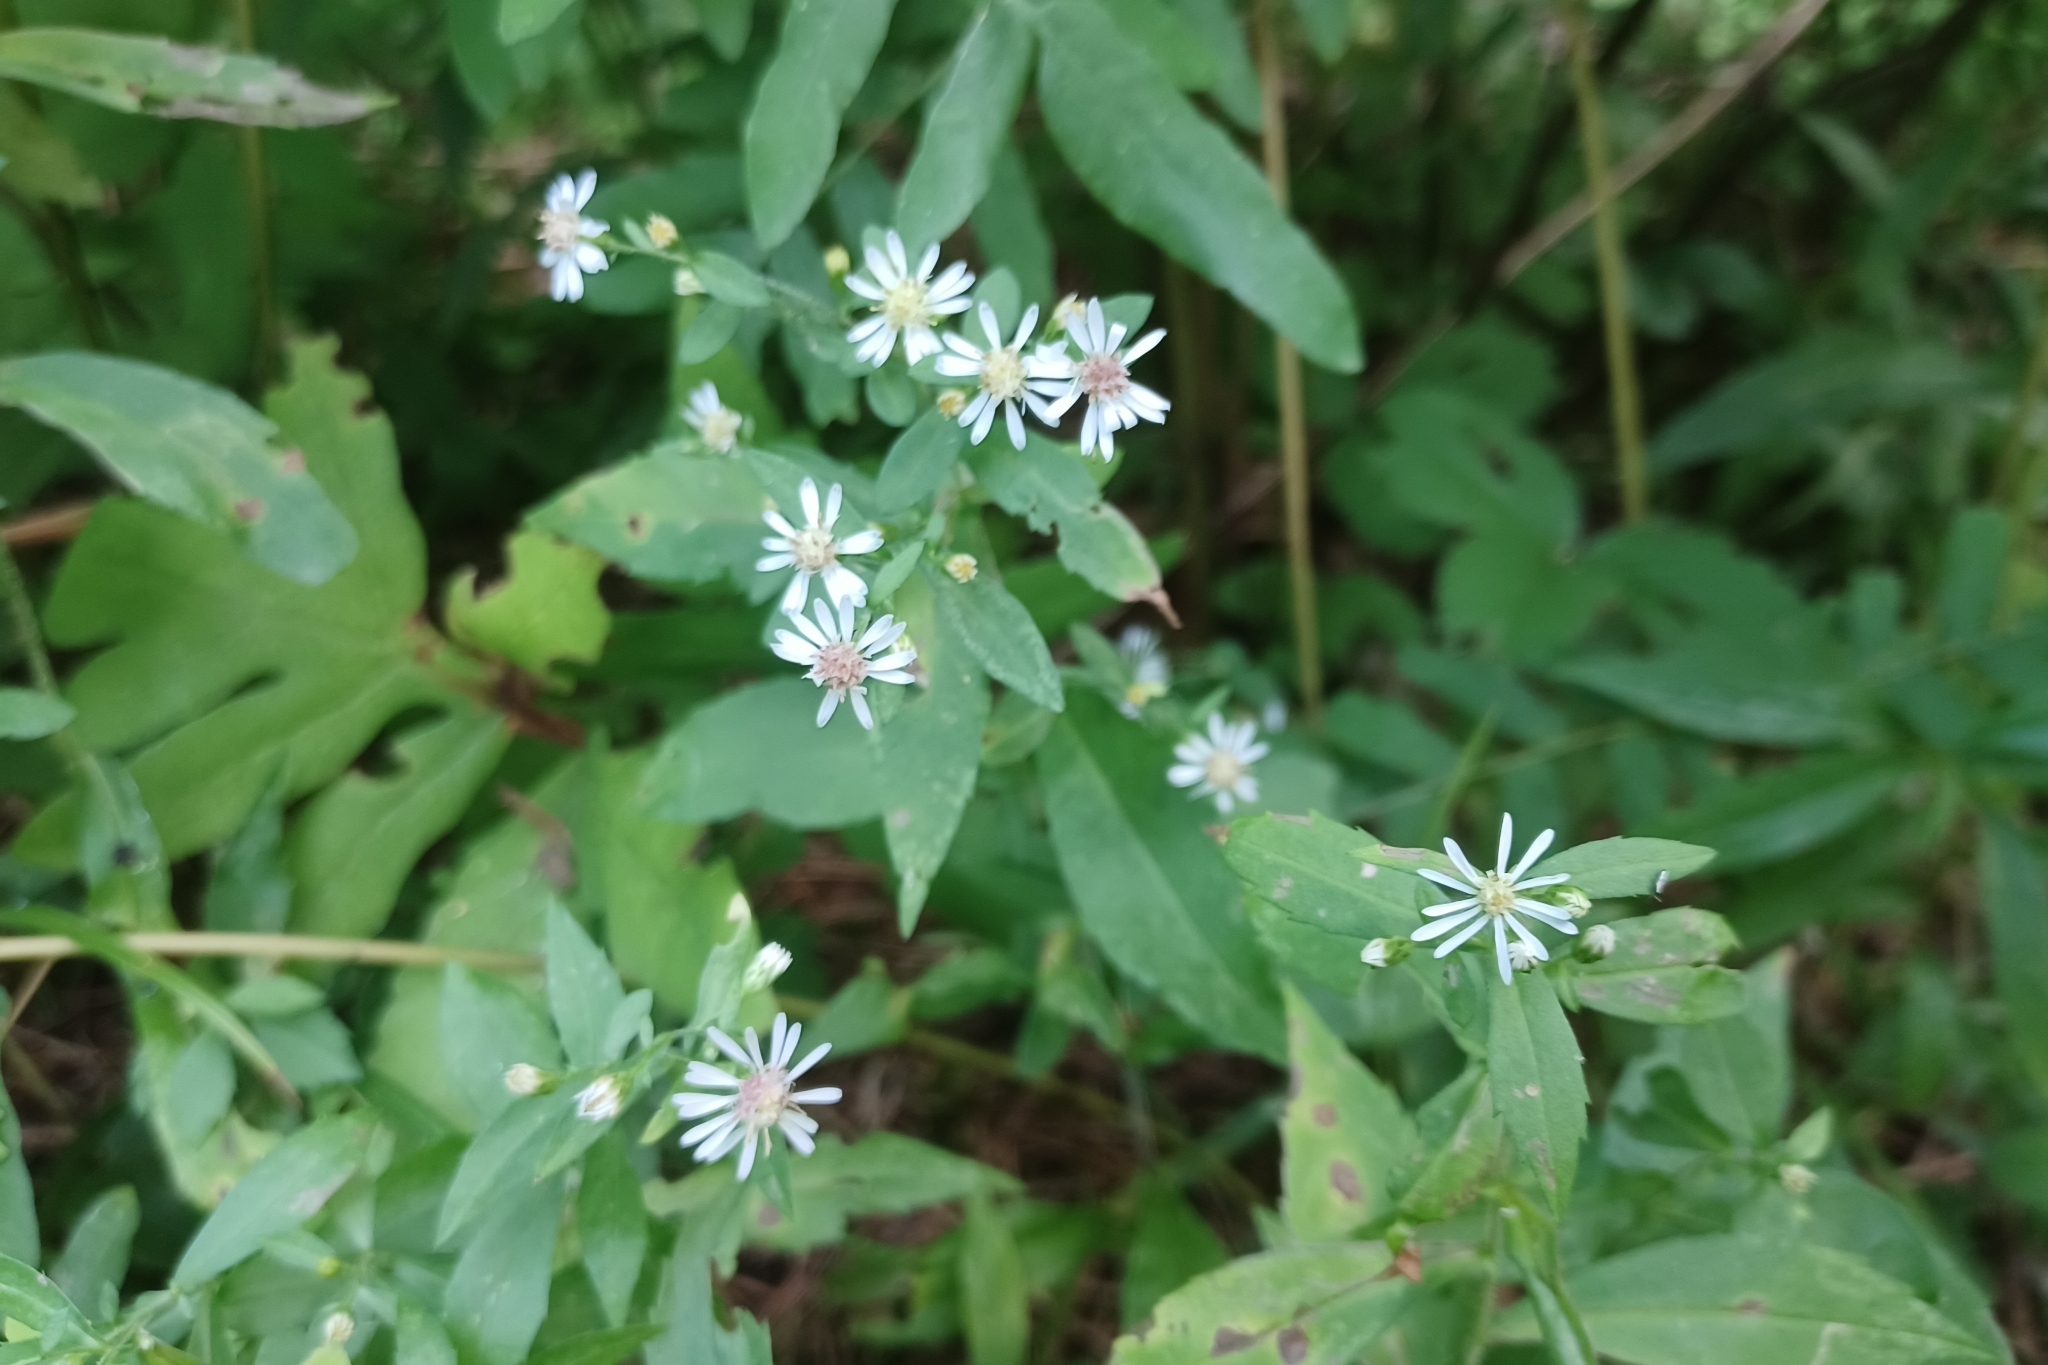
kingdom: Plantae
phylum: Tracheophyta
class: Magnoliopsida
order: Asterales
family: Asteraceae
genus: Symphyotrichum
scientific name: Symphyotrichum lateriflorum
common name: Calico aster
